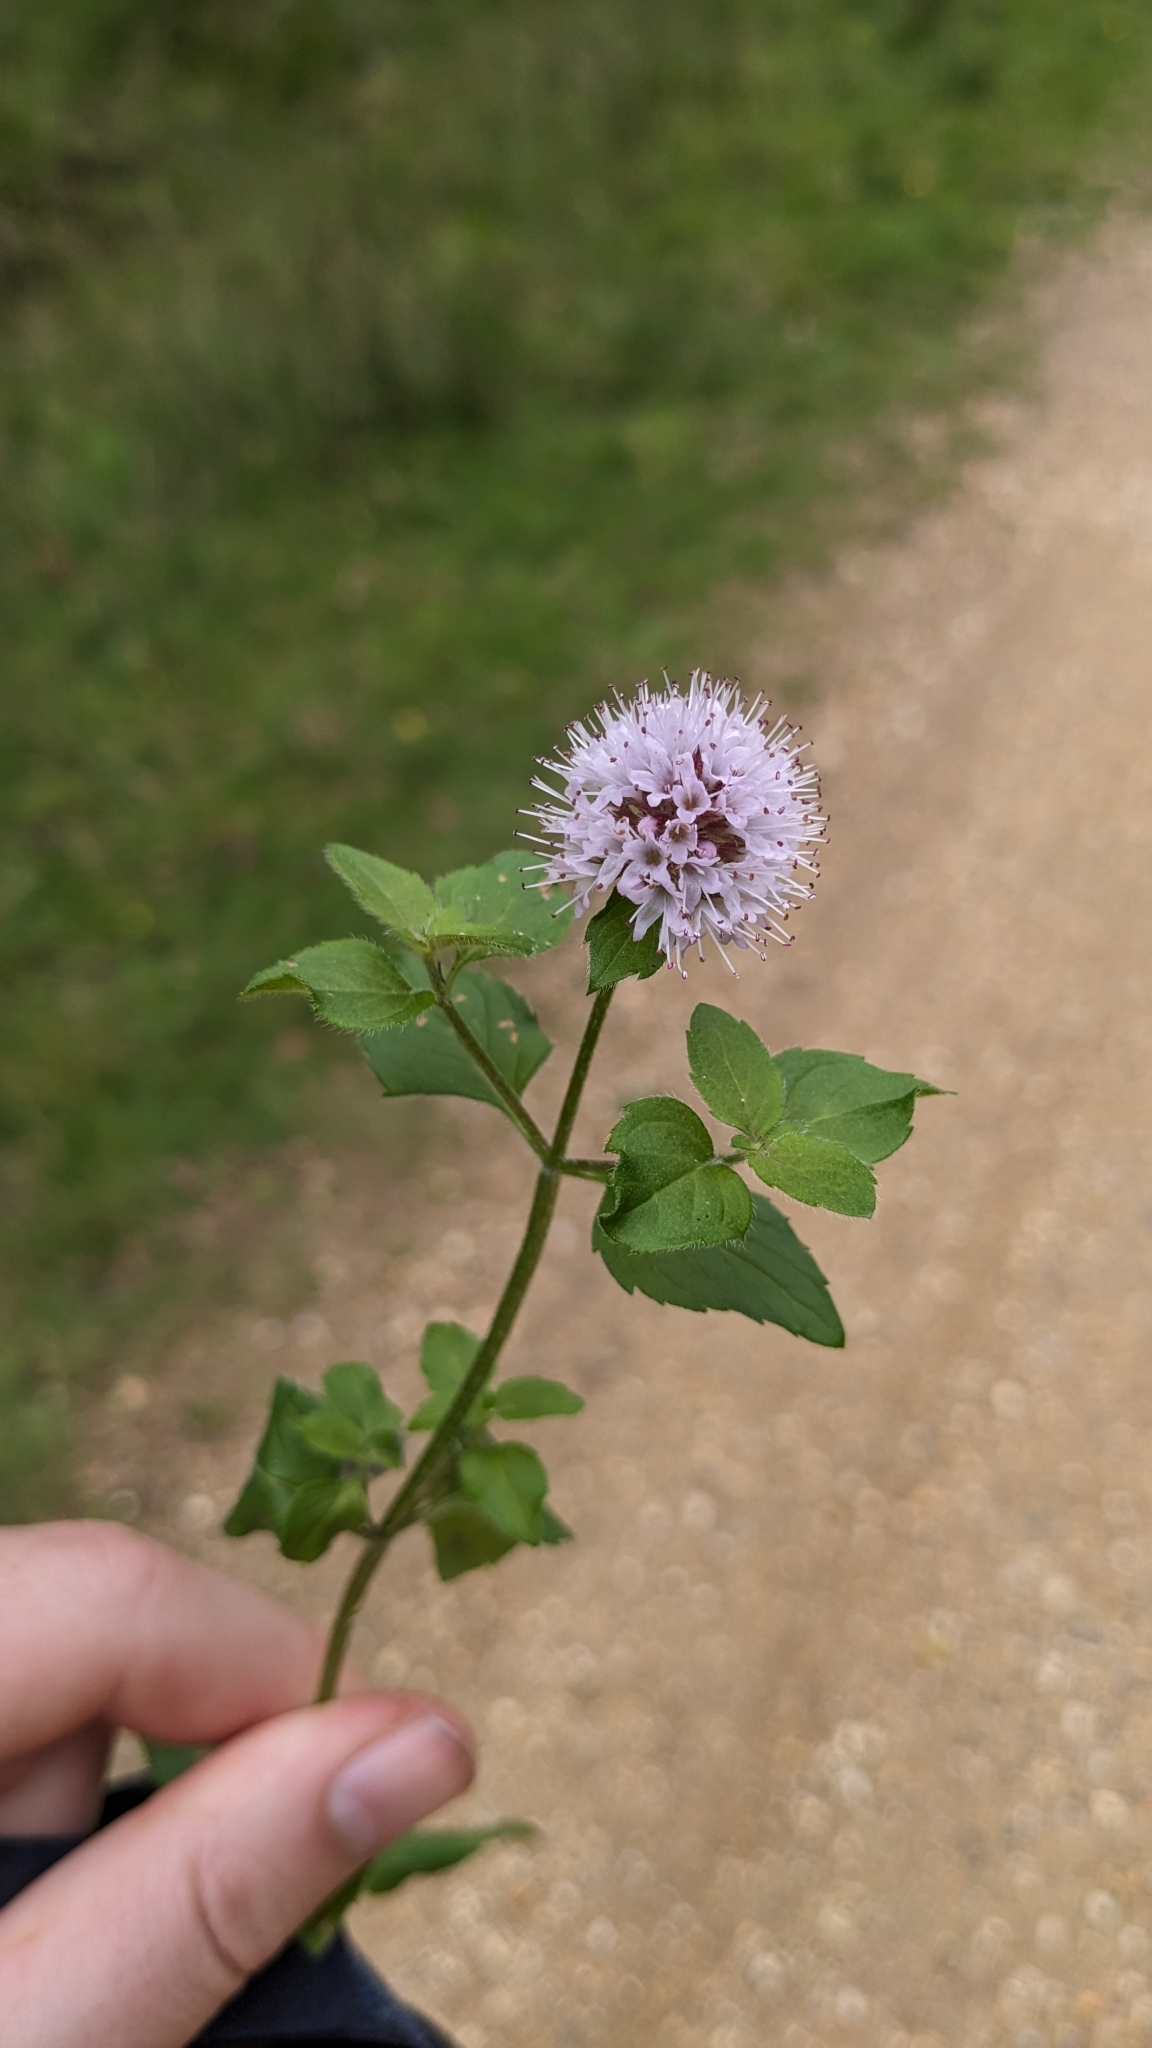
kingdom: Plantae
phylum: Tracheophyta
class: Magnoliopsida
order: Lamiales
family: Lamiaceae
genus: Mentha
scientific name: Mentha aquatica
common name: Water mint
